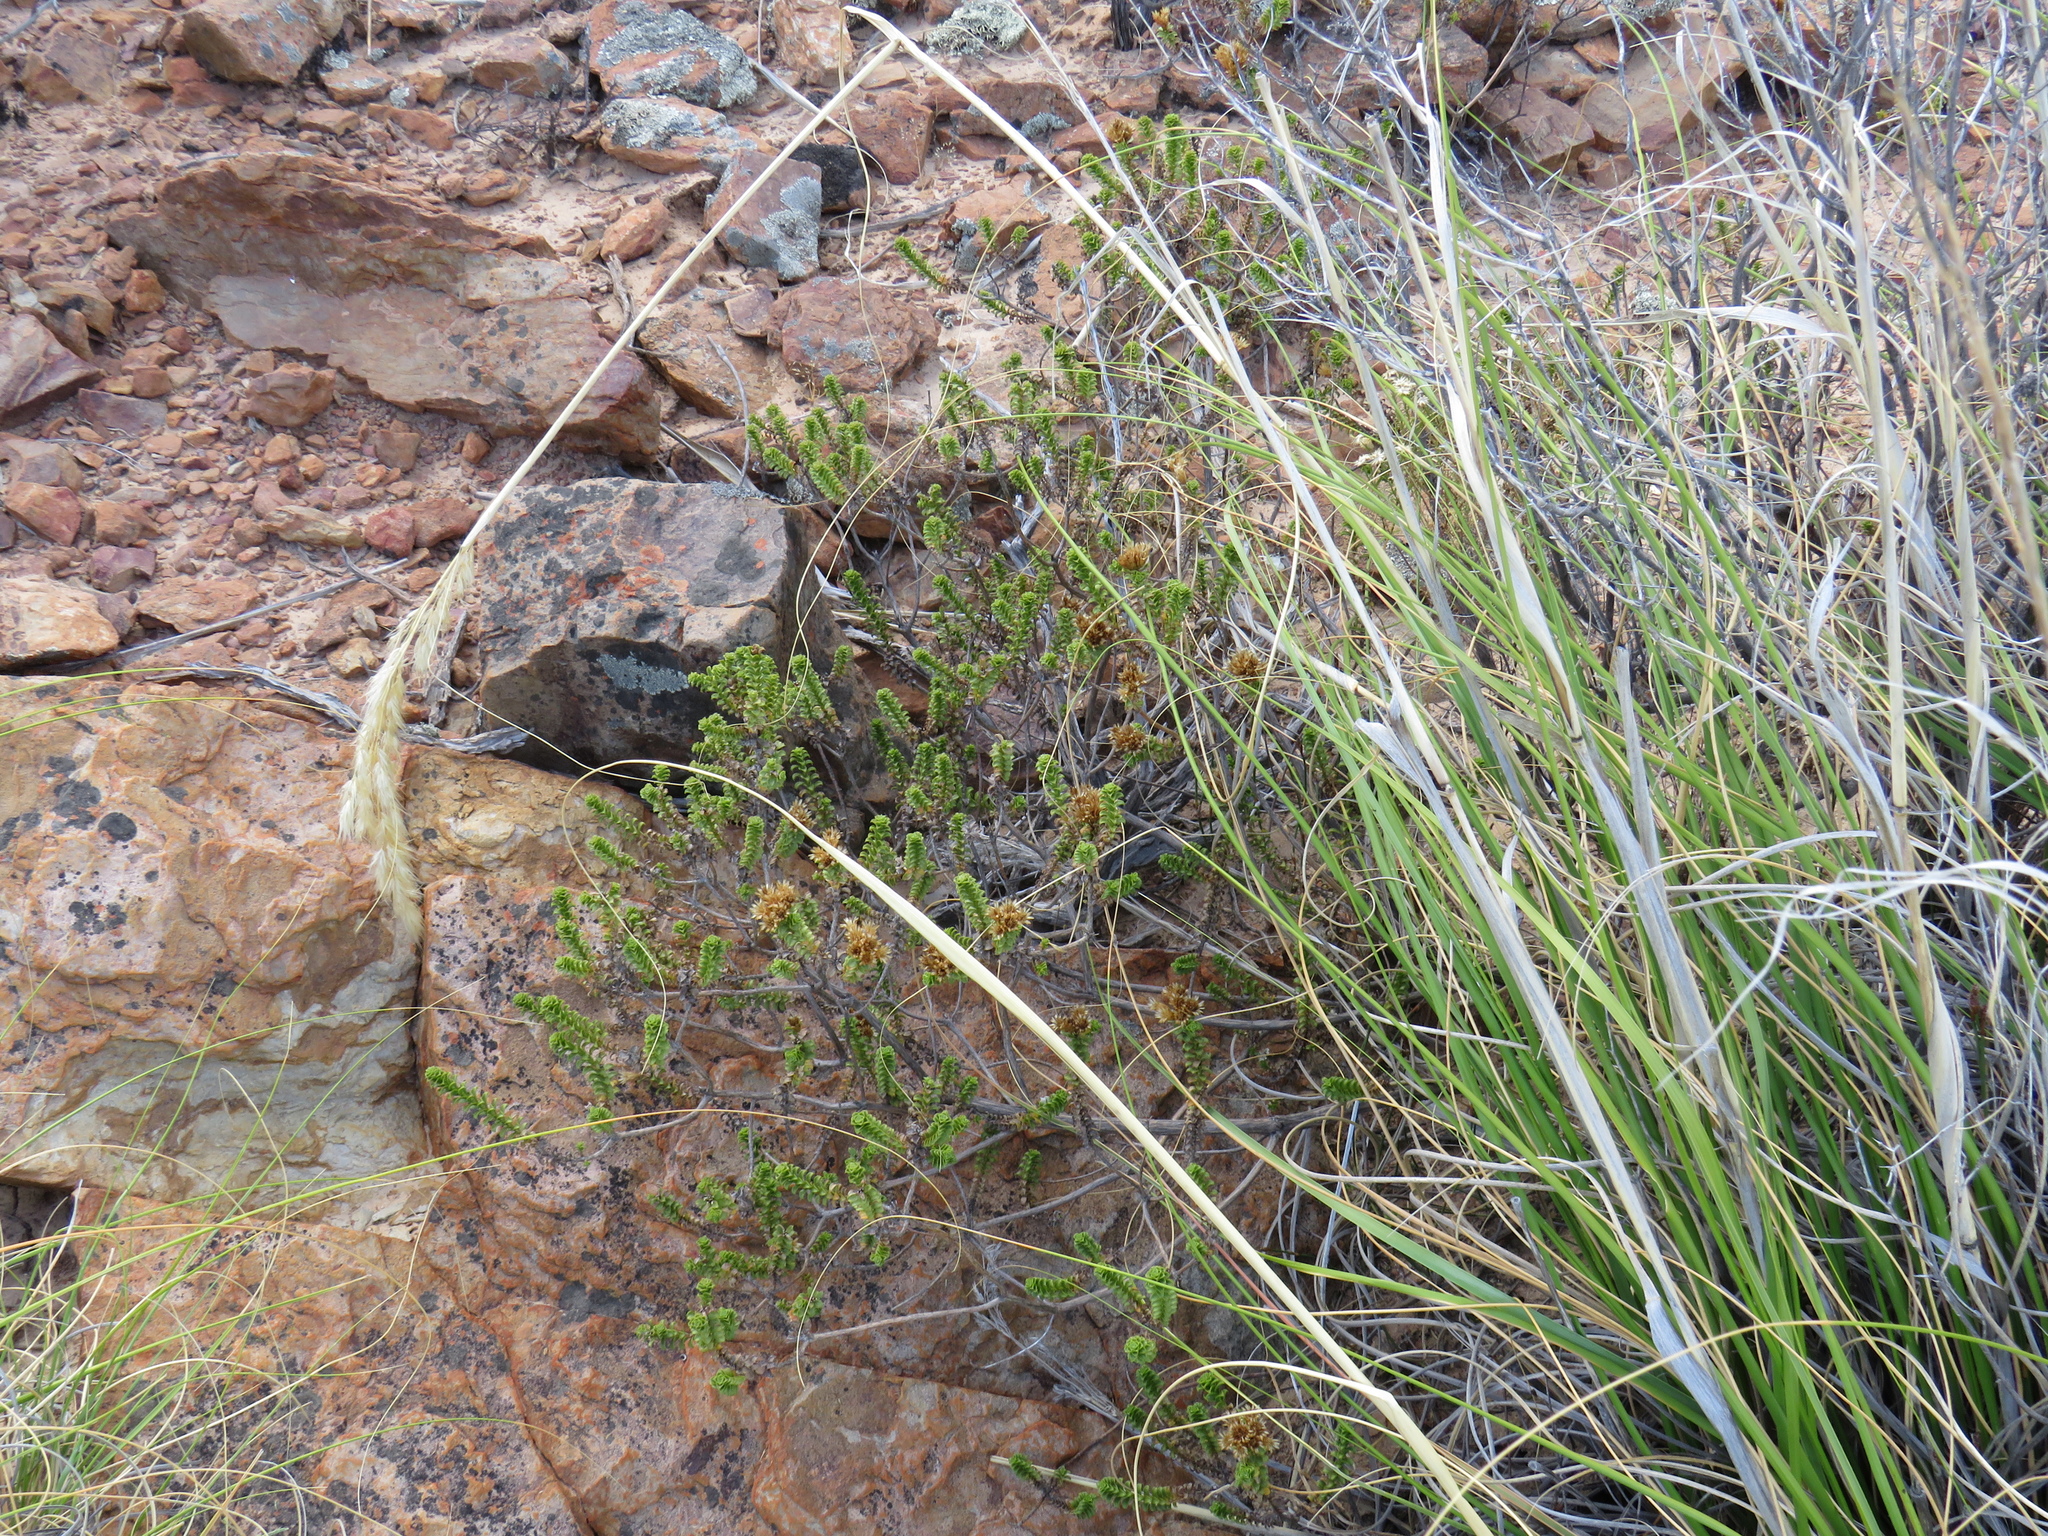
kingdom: Plantae
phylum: Tracheophyta
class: Magnoliopsida
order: Asterales
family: Asteraceae
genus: Oedera
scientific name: Oedera squarrosa
